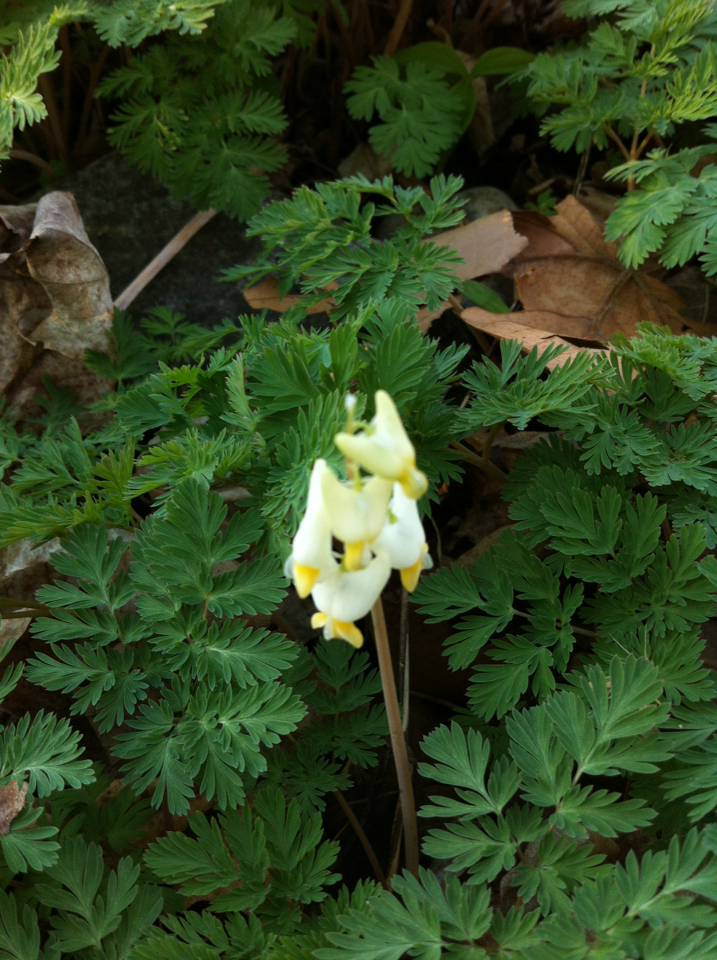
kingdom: Plantae
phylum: Tracheophyta
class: Magnoliopsida
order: Ranunculales
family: Papaveraceae
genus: Dicentra
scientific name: Dicentra cucullaria
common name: Dutchman's breeches
